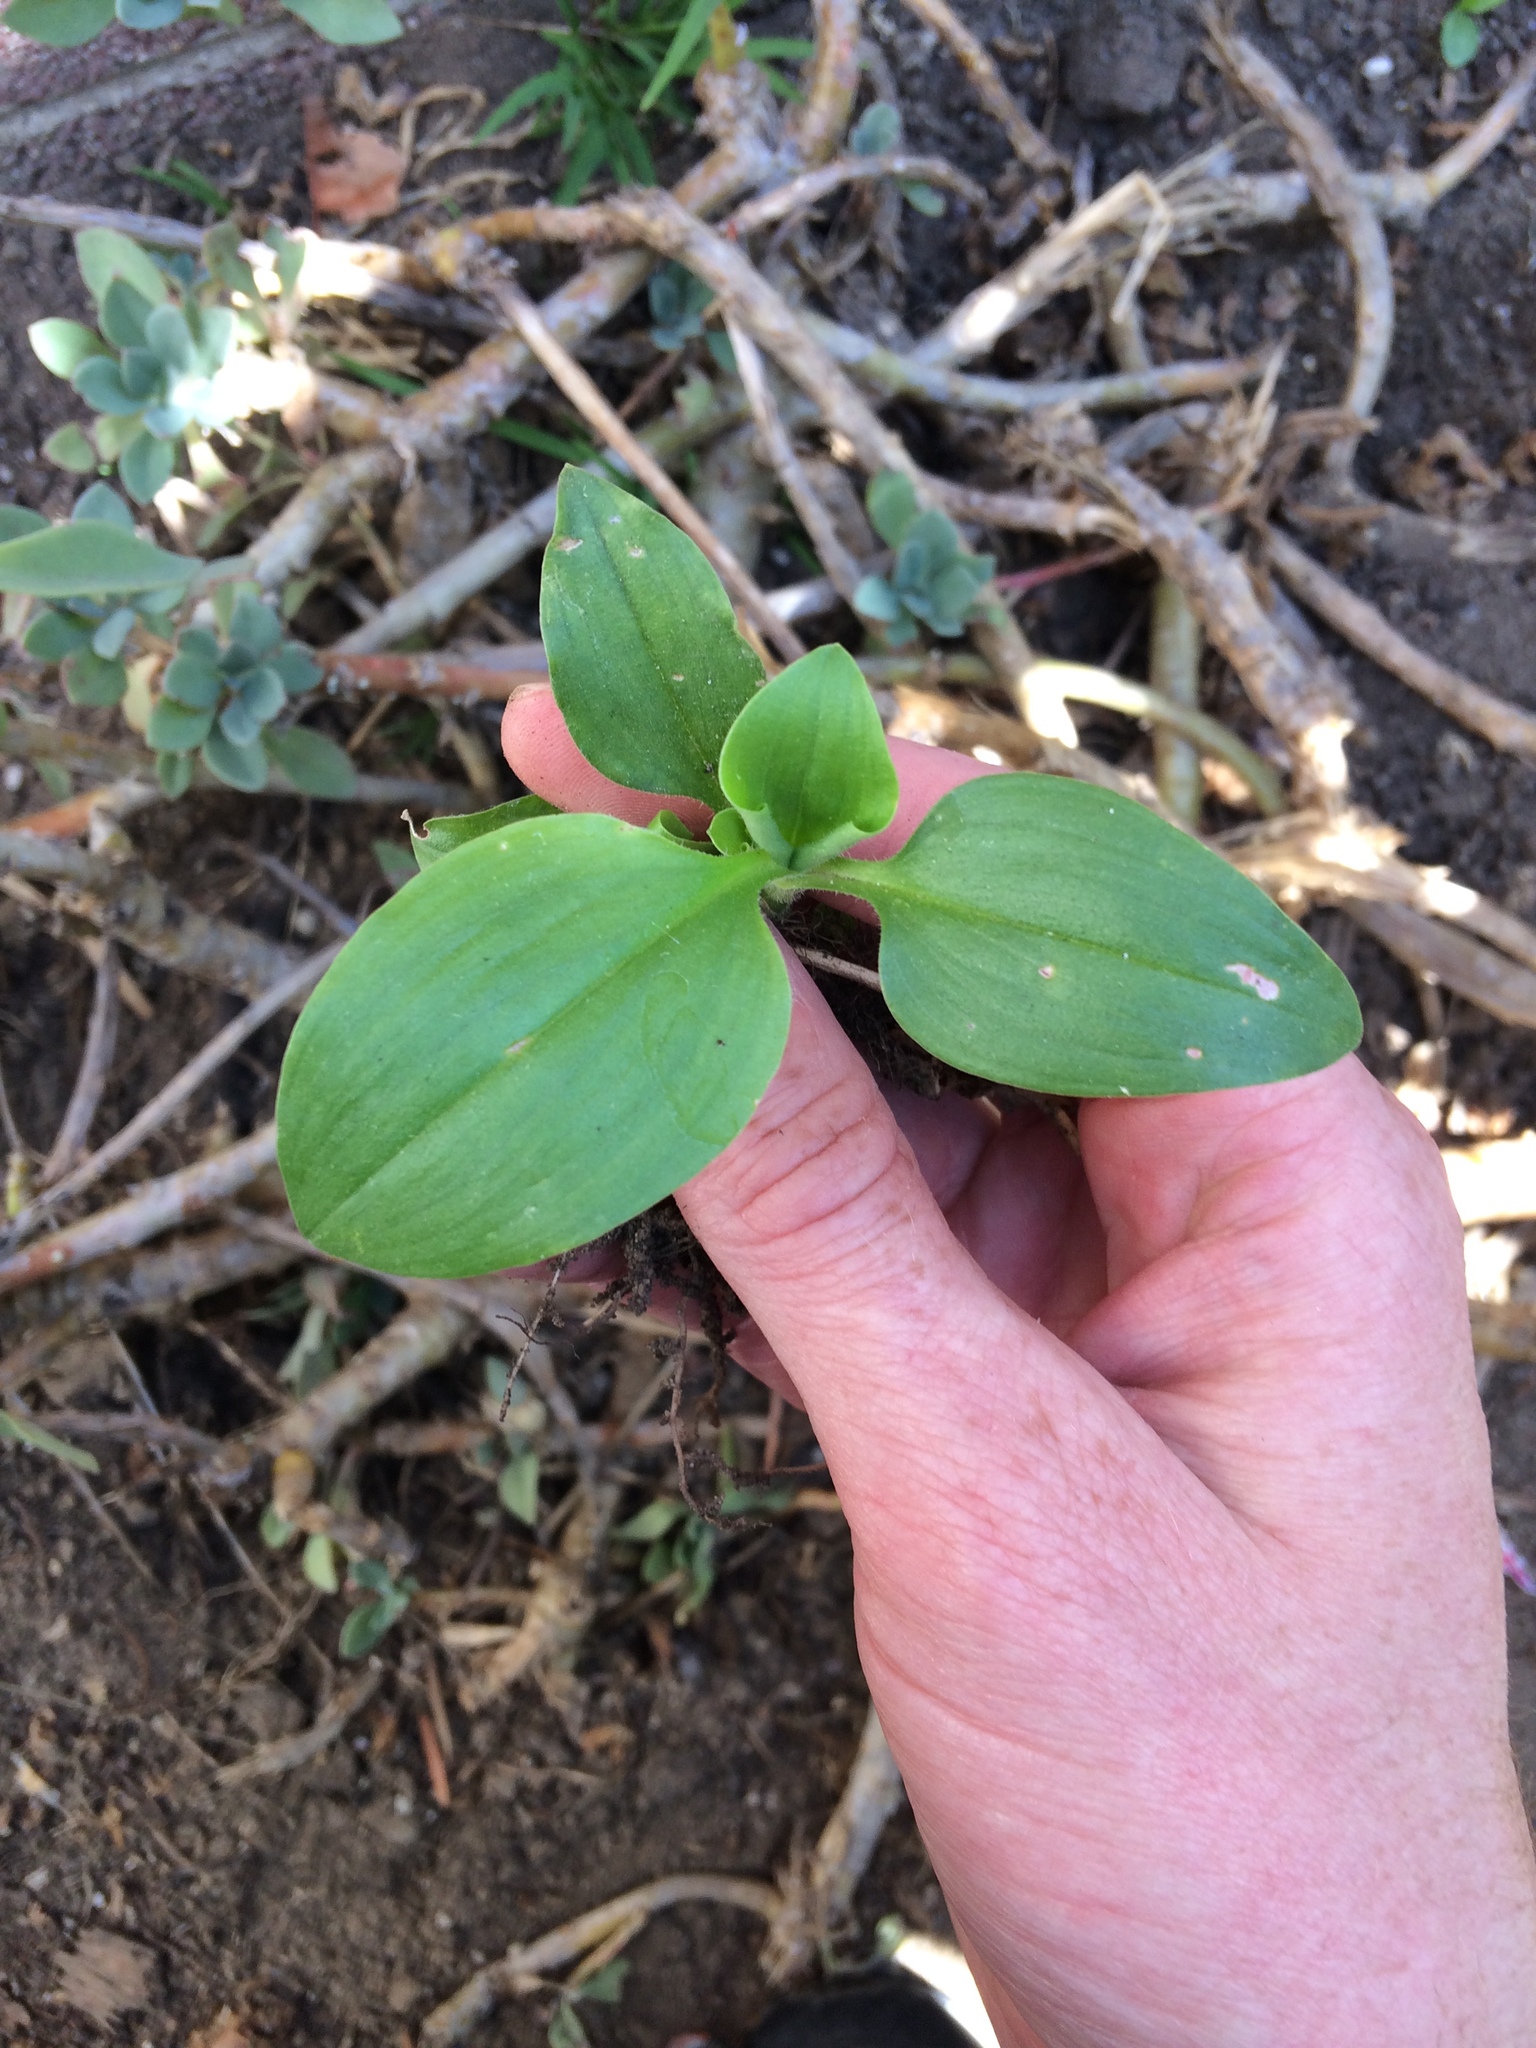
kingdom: Plantae
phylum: Tracheophyta
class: Liliopsida
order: Commelinales
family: Commelinaceae
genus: Commelina
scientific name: Commelina benghalensis
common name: Jio
